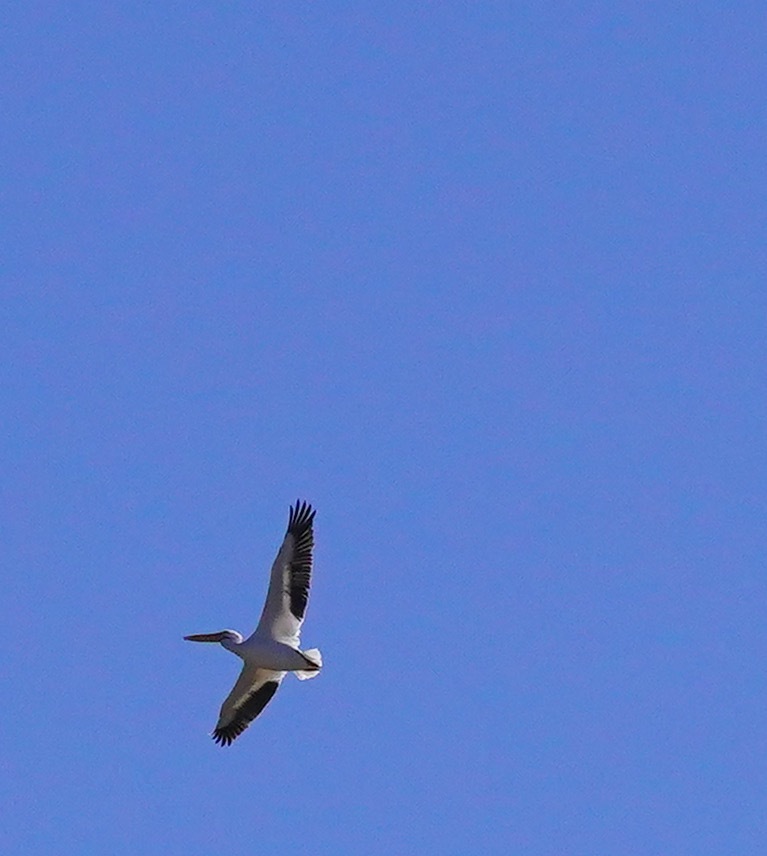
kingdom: Animalia
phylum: Chordata
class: Aves
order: Pelecaniformes
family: Pelecanidae
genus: Pelecanus
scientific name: Pelecanus erythrorhynchos
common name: American white pelican
